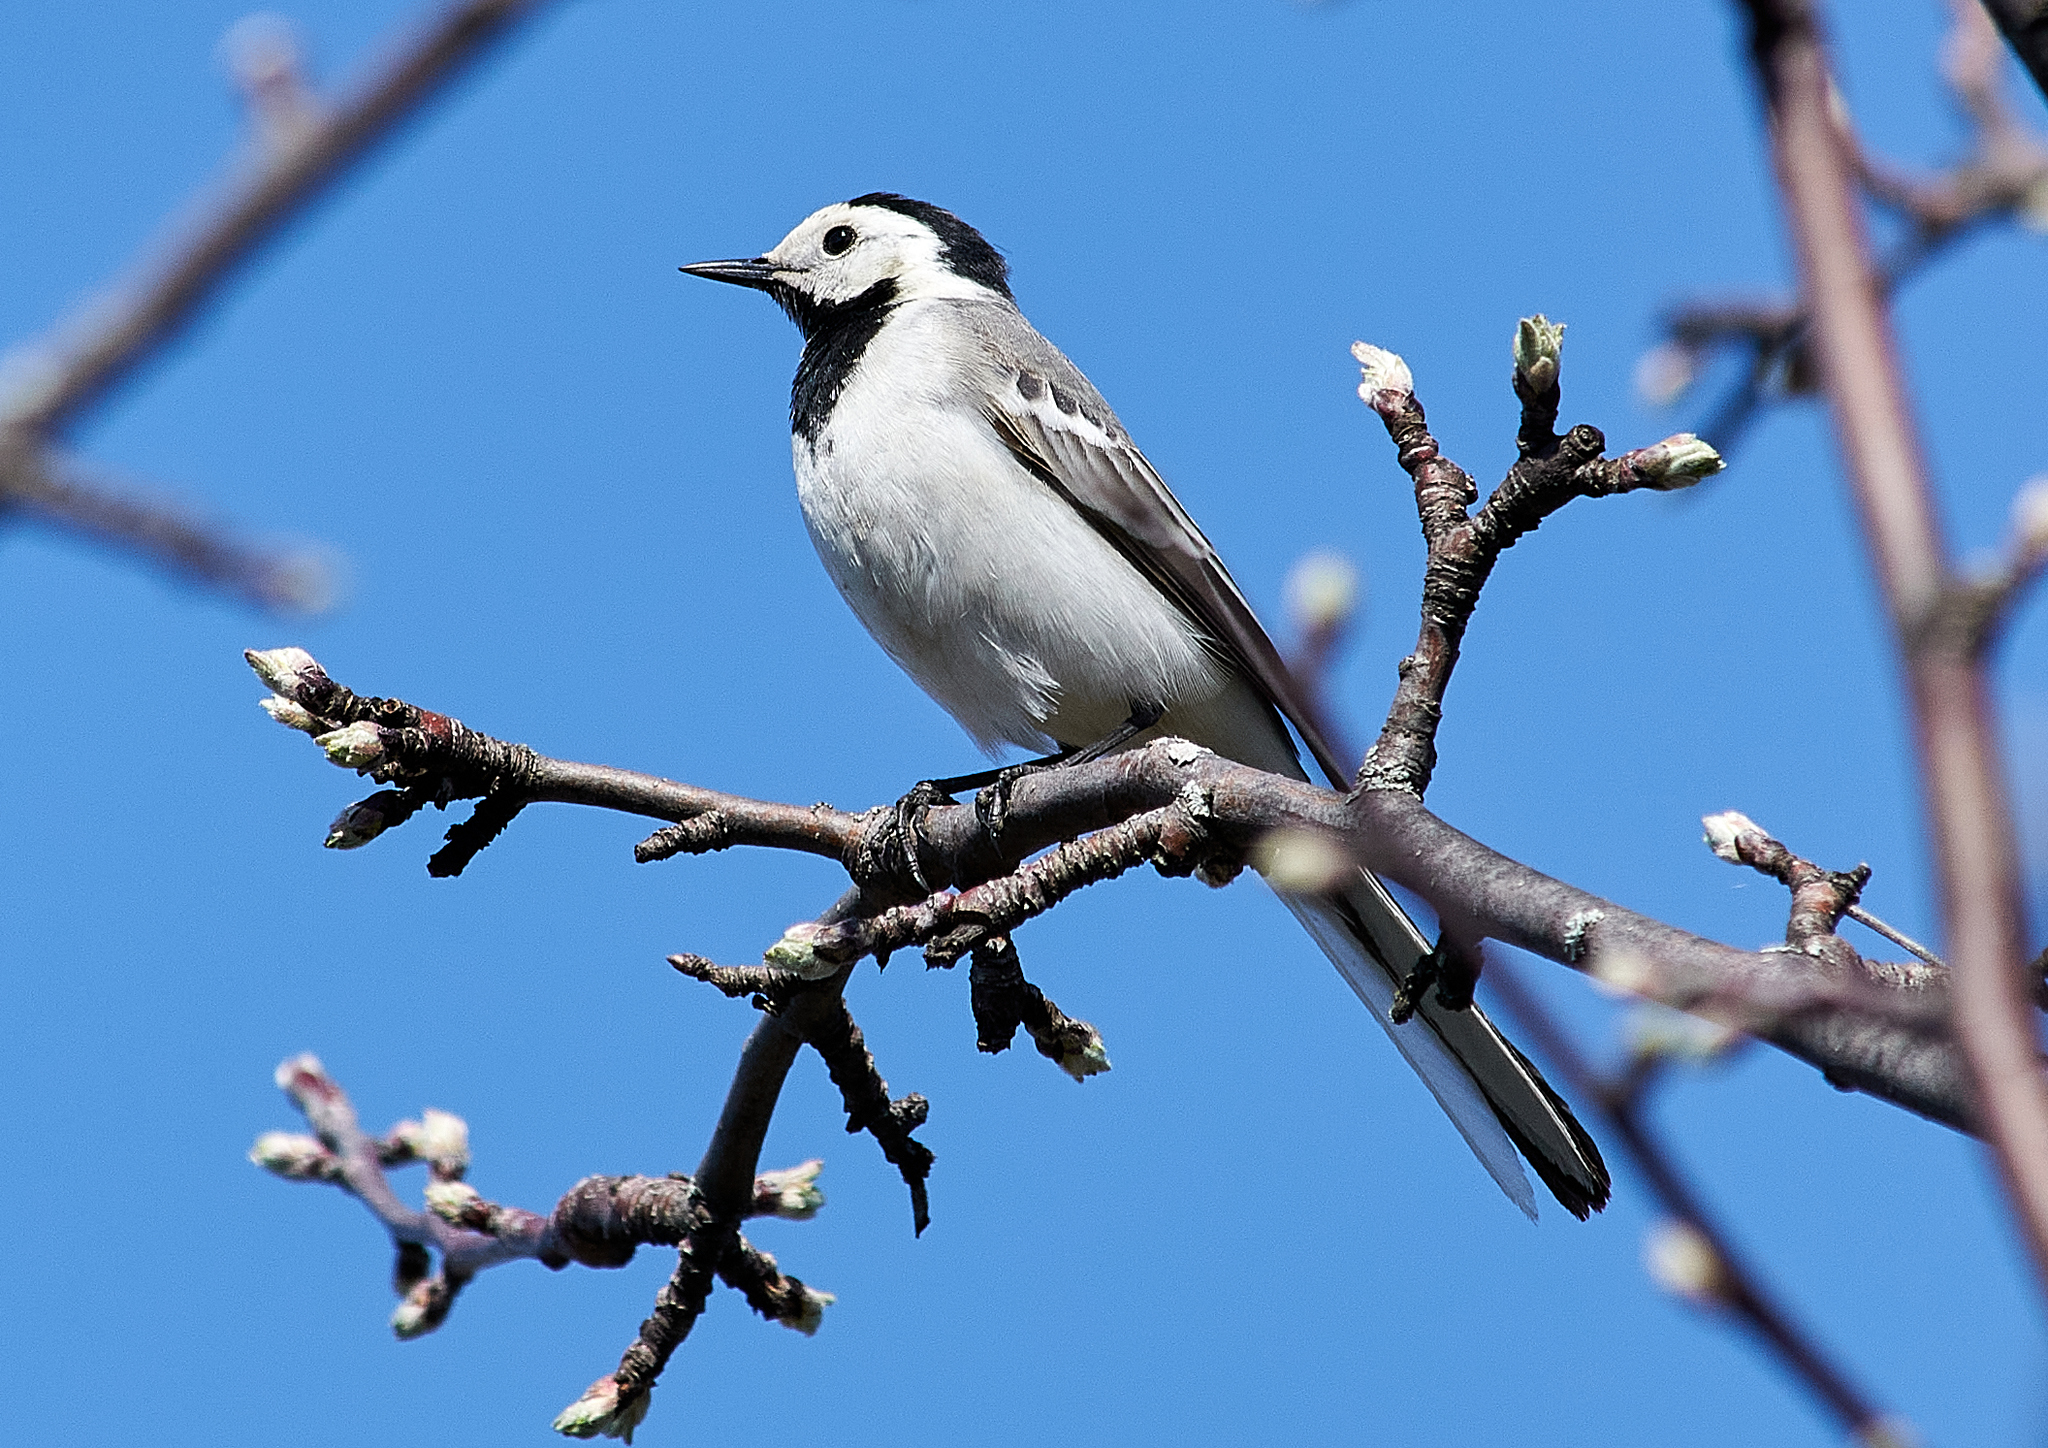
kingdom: Animalia
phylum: Chordata
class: Aves
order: Passeriformes
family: Motacillidae
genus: Motacilla
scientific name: Motacilla alba
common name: White wagtail
